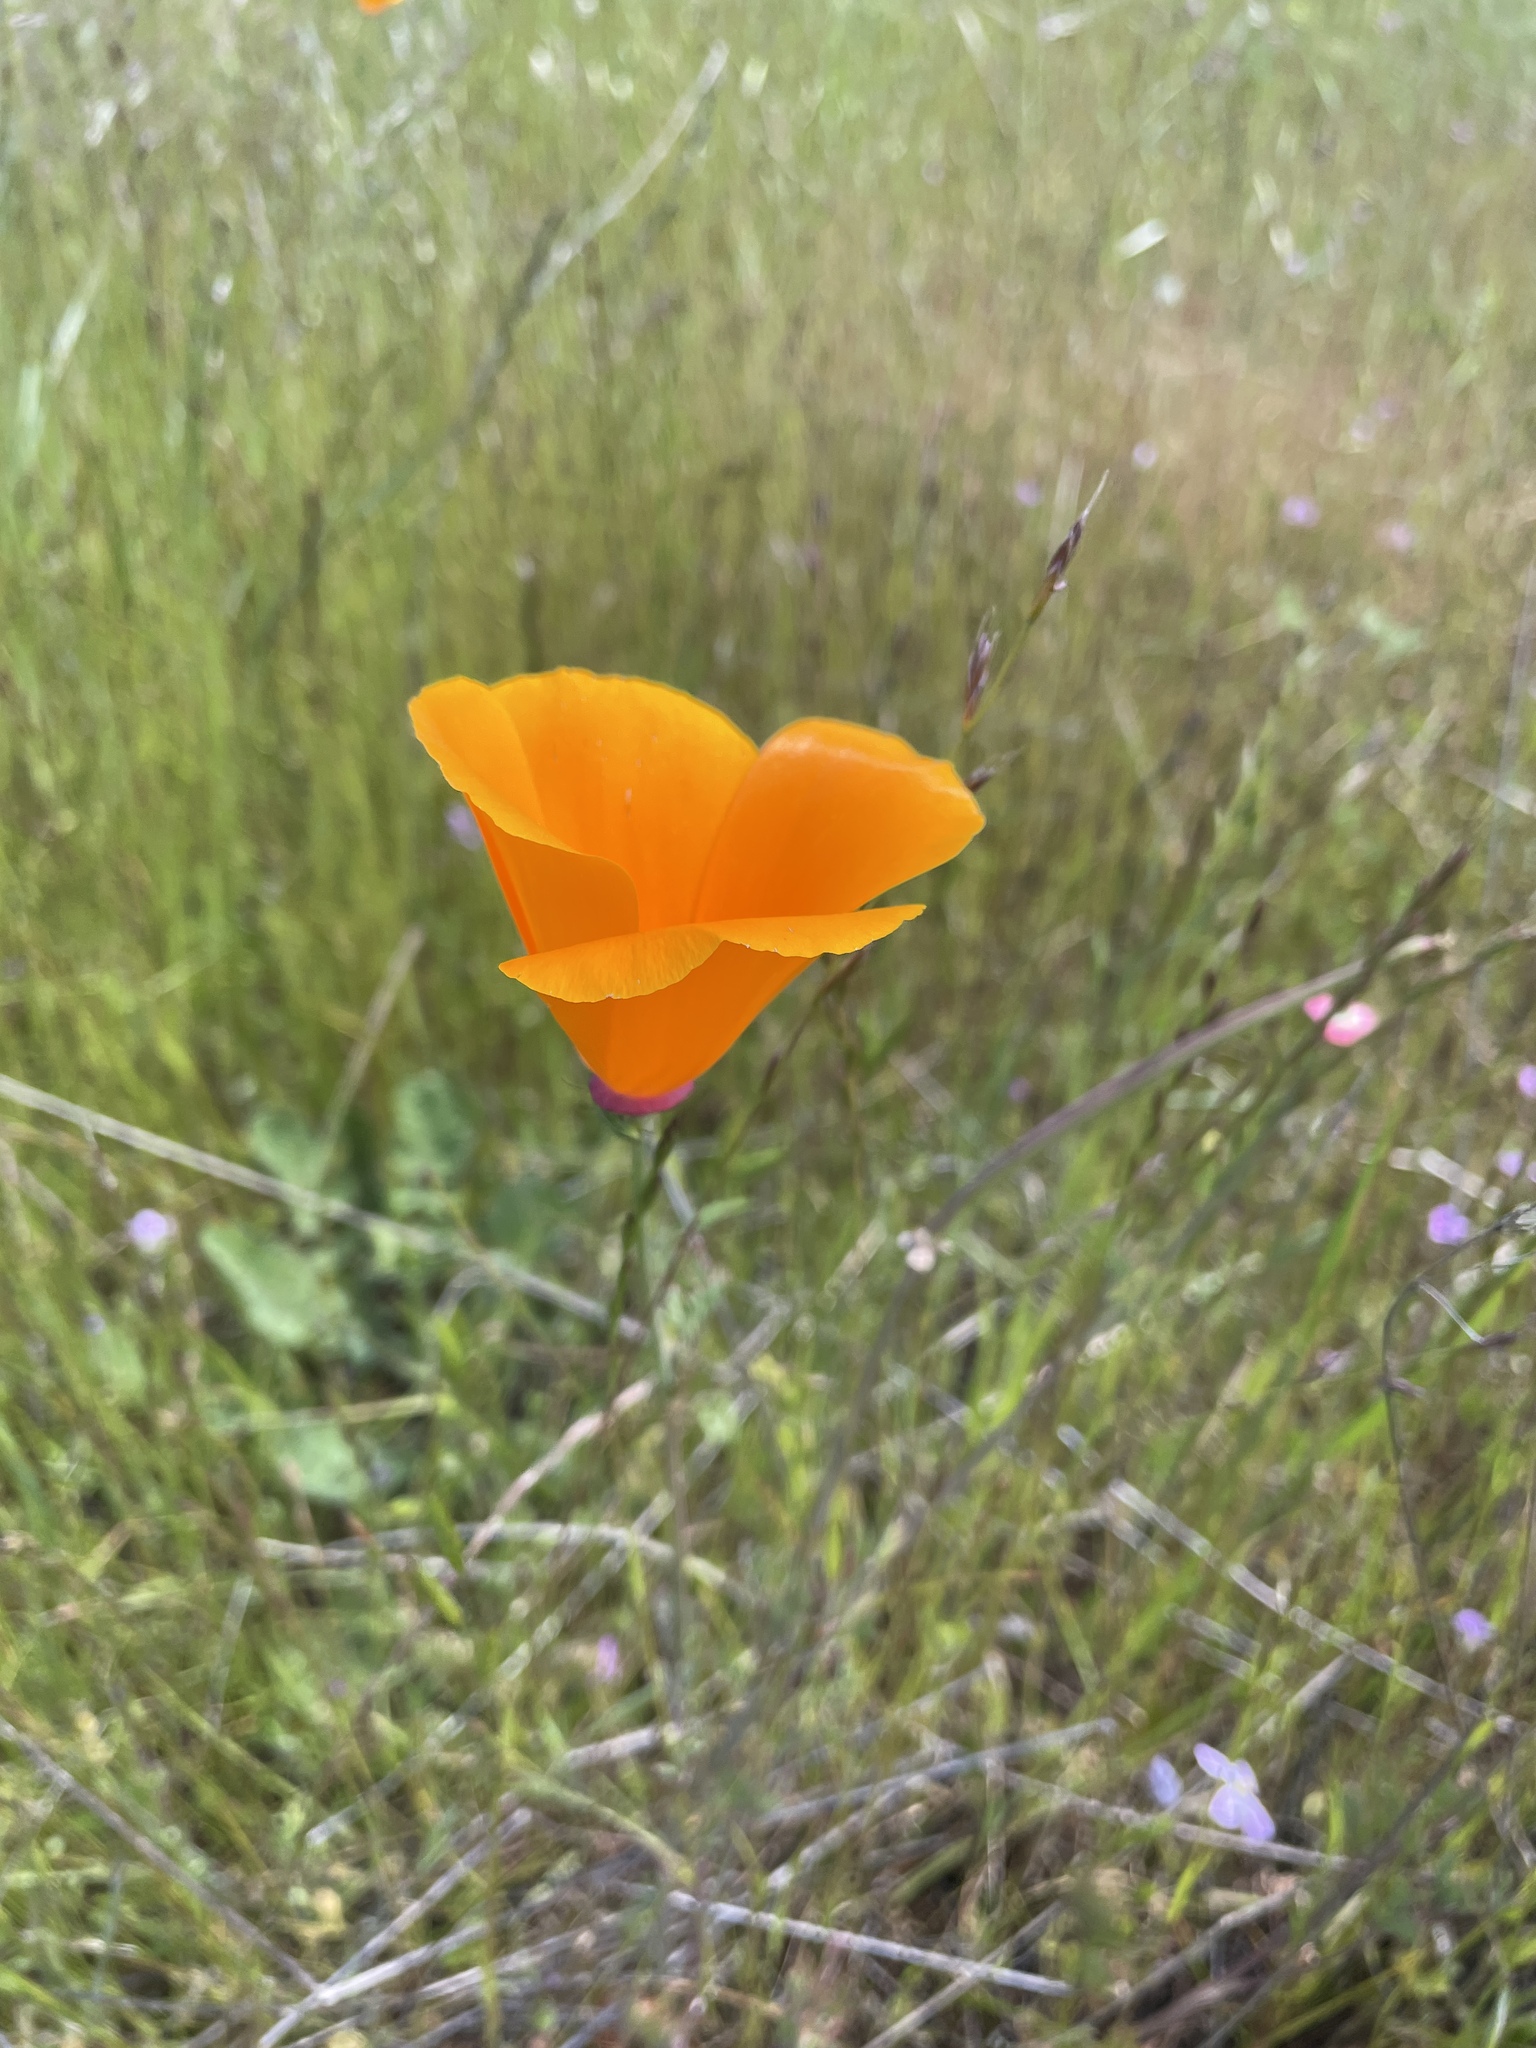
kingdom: Plantae
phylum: Tracheophyta
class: Magnoliopsida
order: Ranunculales
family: Papaveraceae
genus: Eschscholzia
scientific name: Eschscholzia californica
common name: California poppy
